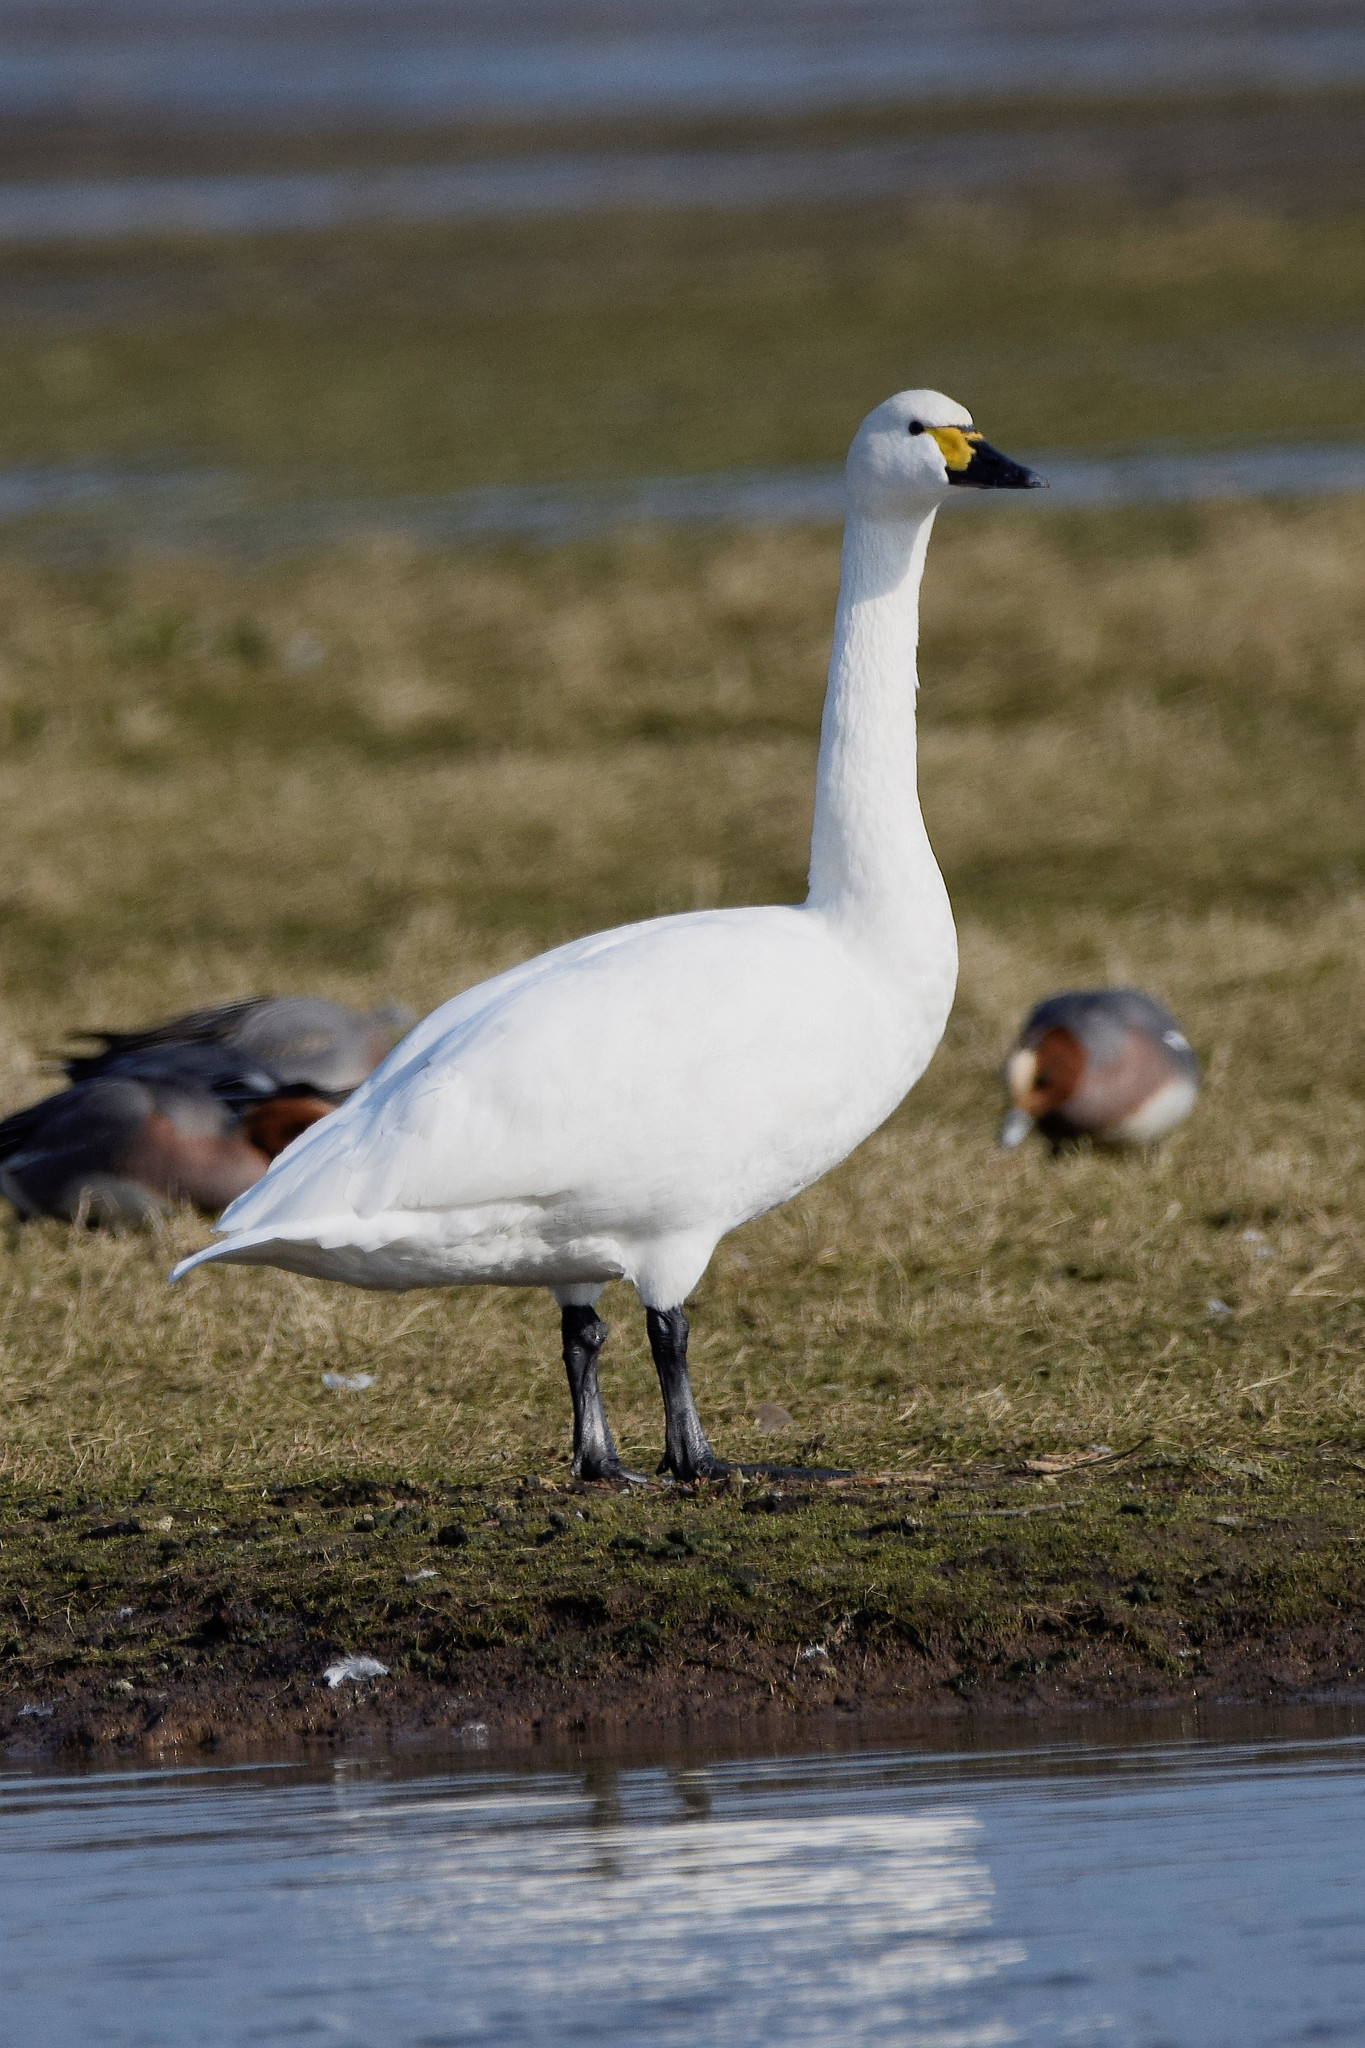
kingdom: Animalia
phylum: Chordata
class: Aves
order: Anseriformes
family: Anatidae
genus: Cygnus
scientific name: Cygnus columbianus
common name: Tundra swan
